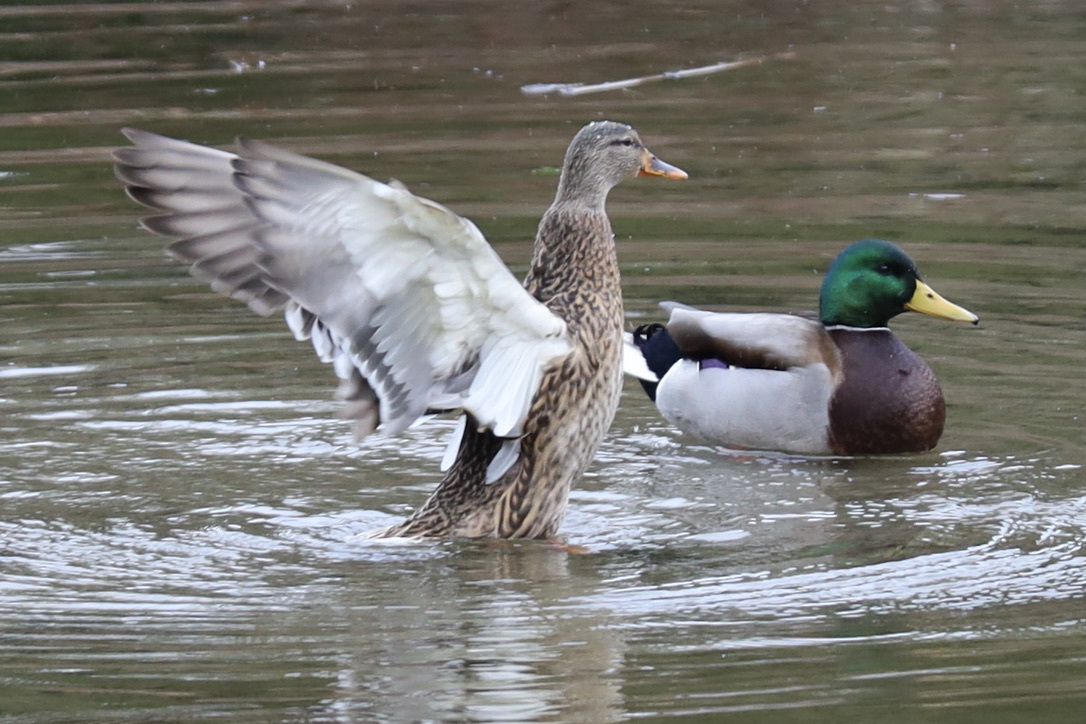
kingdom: Animalia
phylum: Chordata
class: Aves
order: Anseriformes
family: Anatidae
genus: Anas
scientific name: Anas platyrhynchos
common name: Mallard
